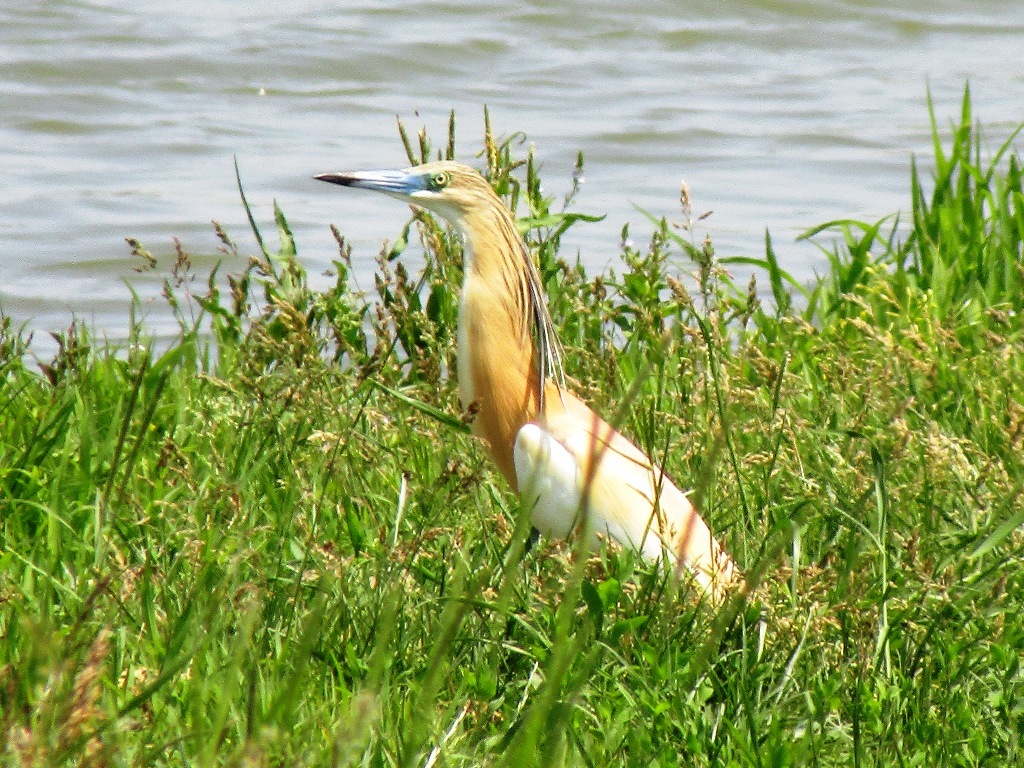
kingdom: Animalia
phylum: Chordata
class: Aves
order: Pelecaniformes
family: Ardeidae
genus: Ardeola
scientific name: Ardeola ralloides
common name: Squacco heron
